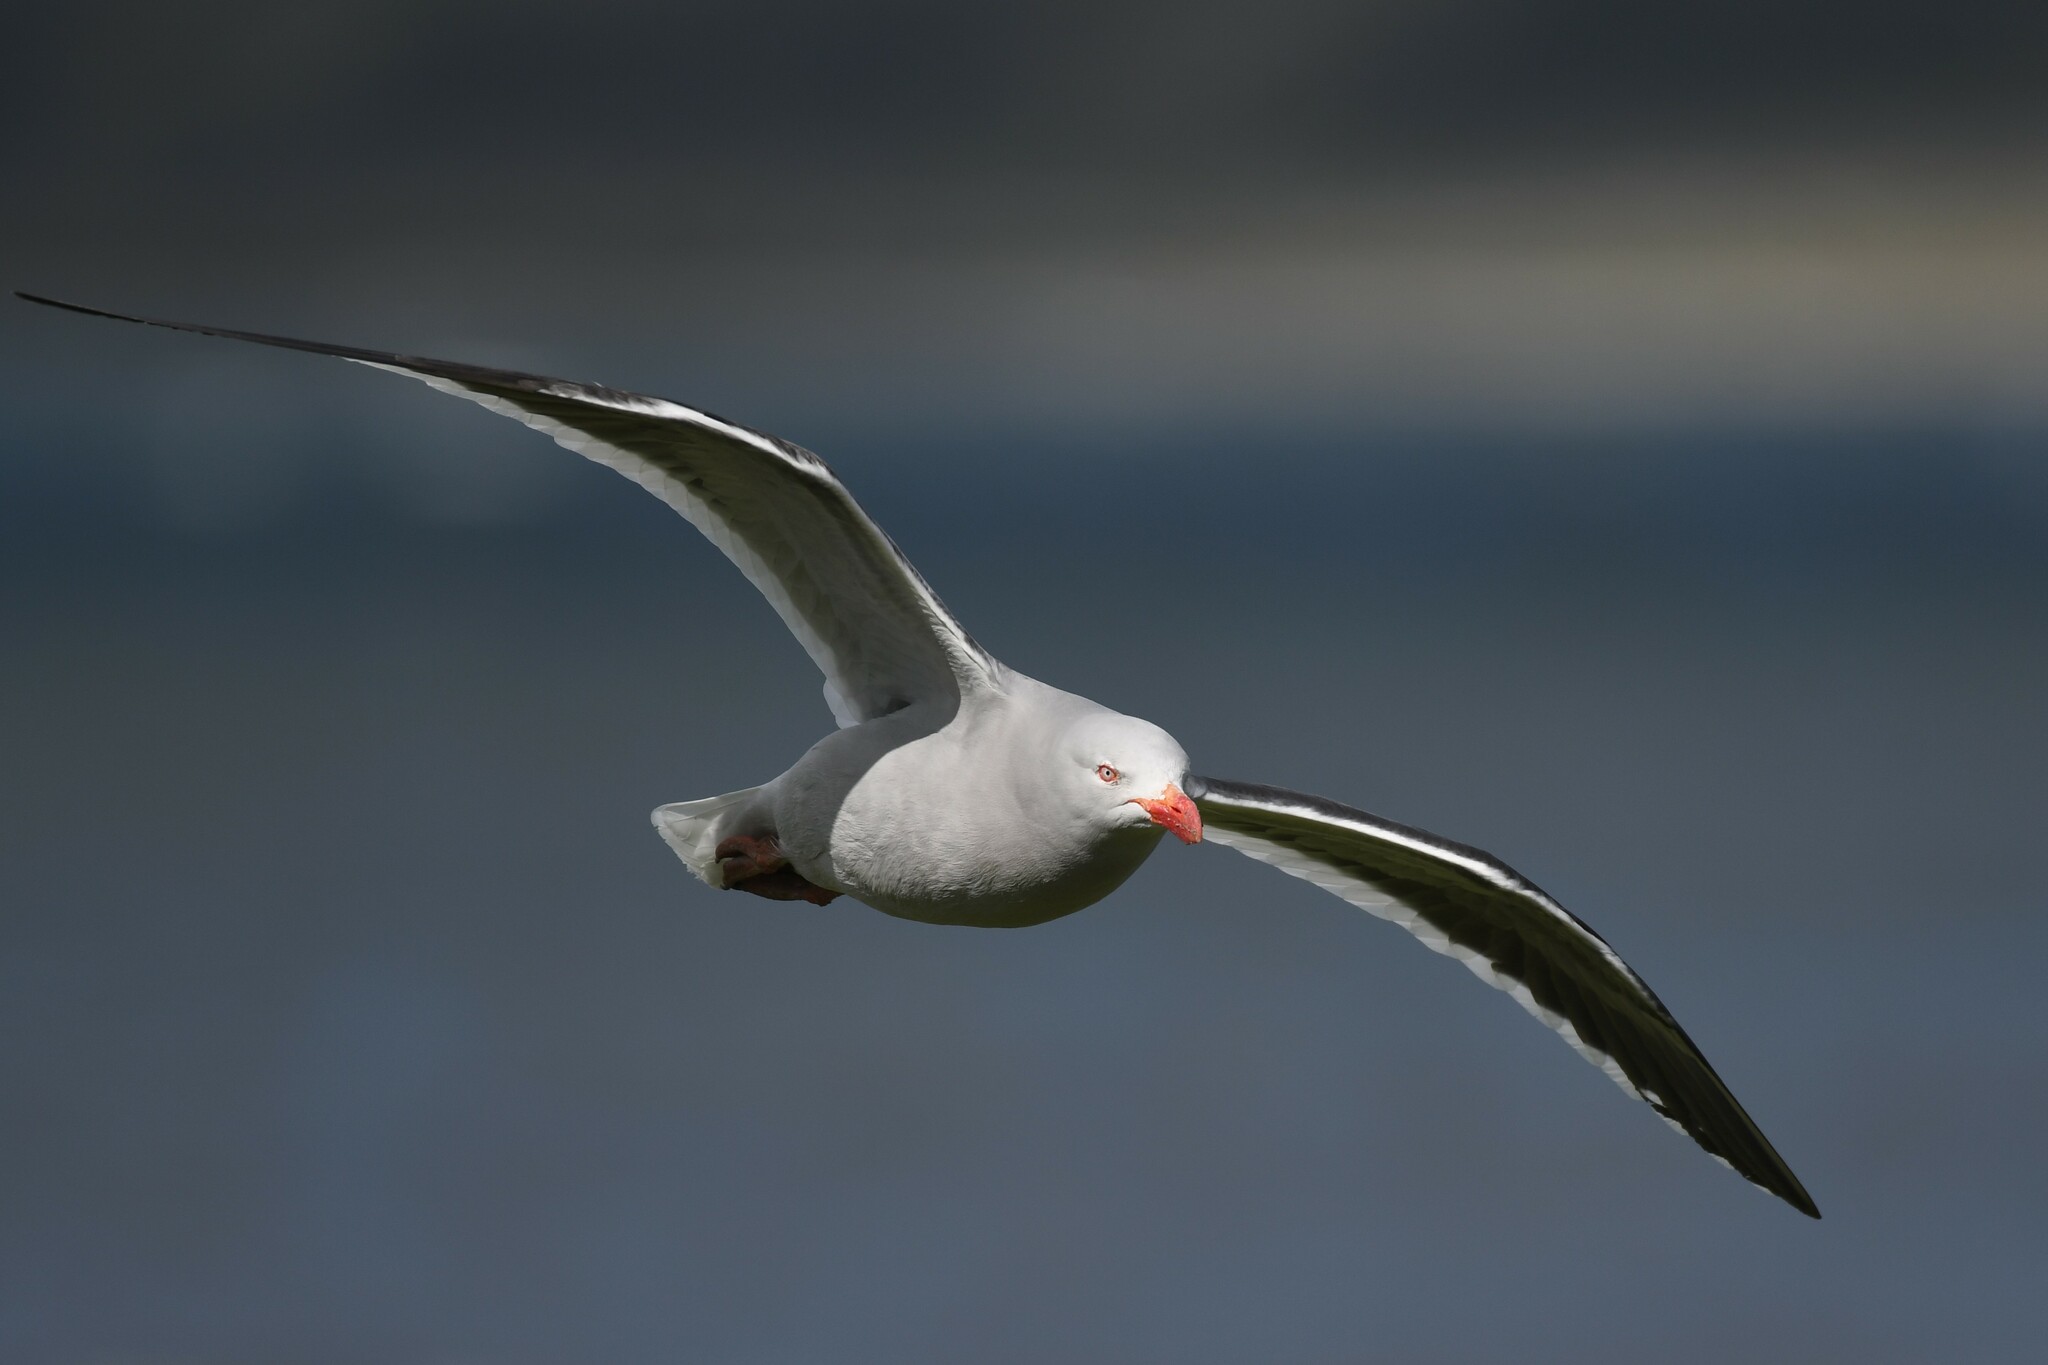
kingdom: Animalia
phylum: Chordata
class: Aves
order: Charadriiformes
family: Laridae
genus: Leucophaeus
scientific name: Leucophaeus scoresbii
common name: Dolphin gull
